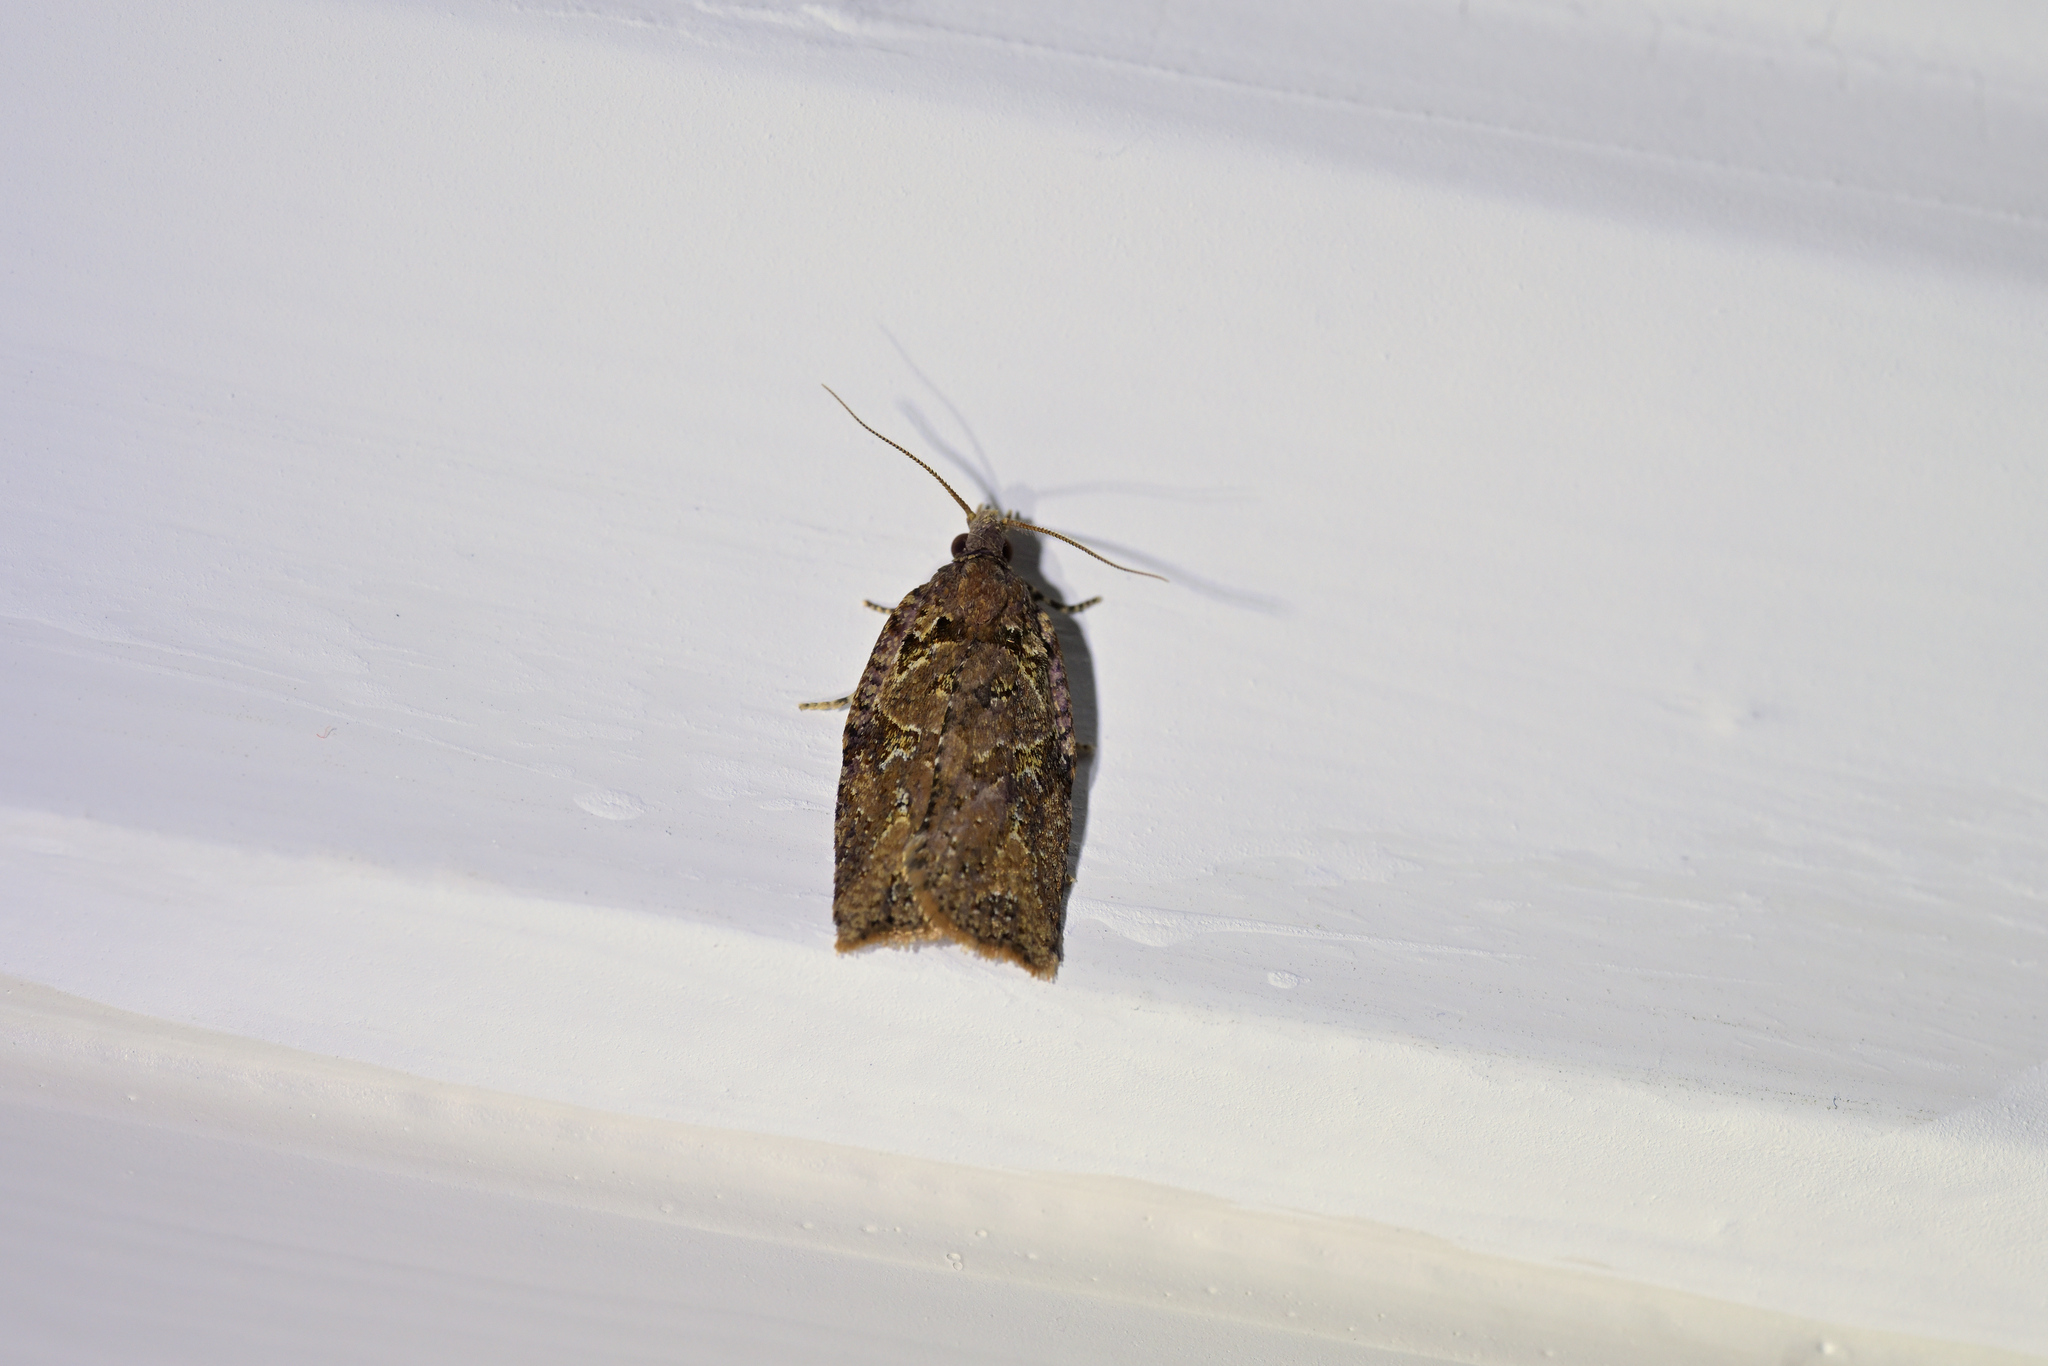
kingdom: Animalia
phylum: Arthropoda
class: Insecta
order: Lepidoptera
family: Tortricidae
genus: Ctenopseustis
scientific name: Ctenopseustis obliquana
